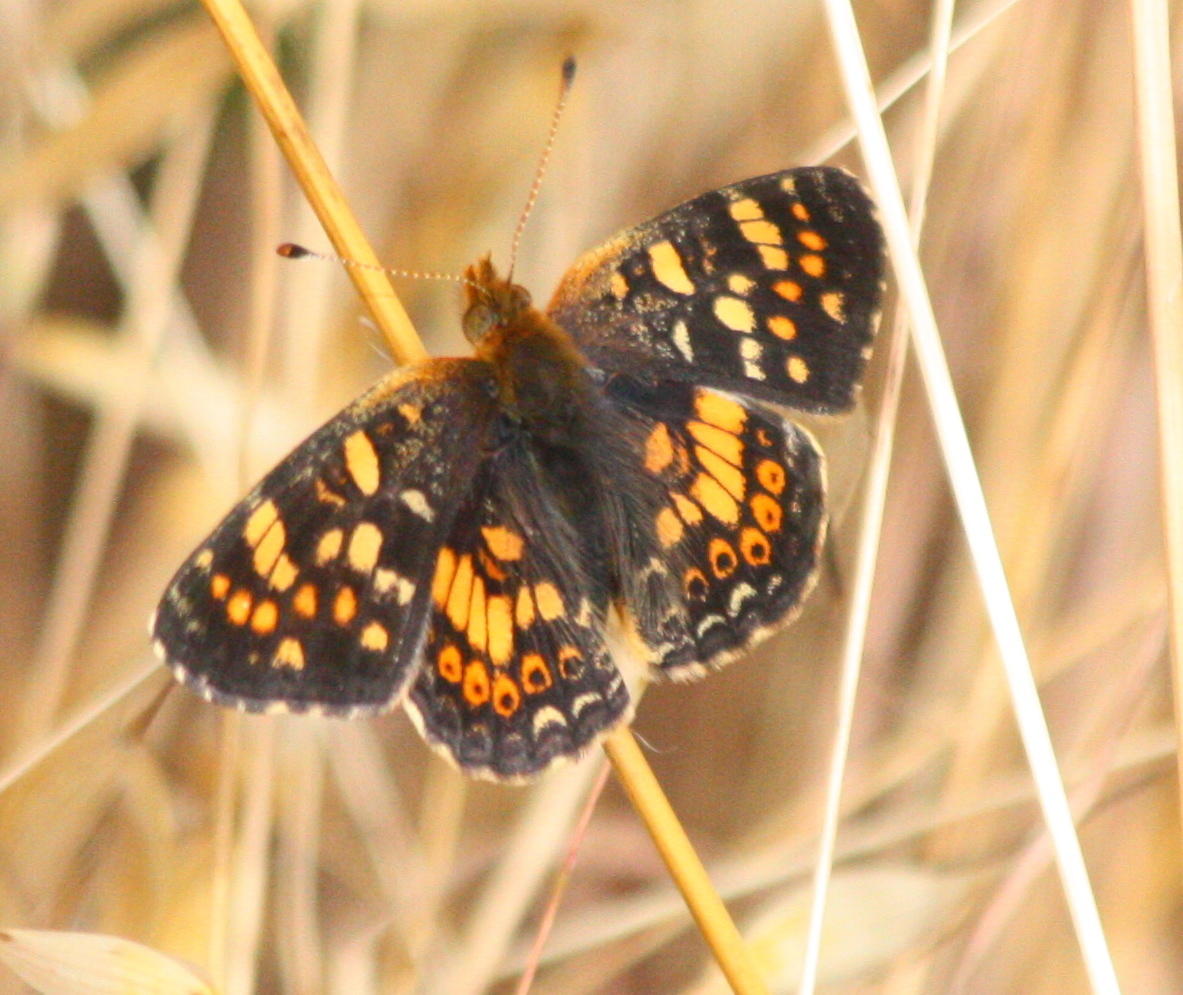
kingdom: Animalia
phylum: Arthropoda
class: Insecta
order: Lepidoptera
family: Nymphalidae
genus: Phyciodes
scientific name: Phyciodes tharos
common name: Pearl crescent
